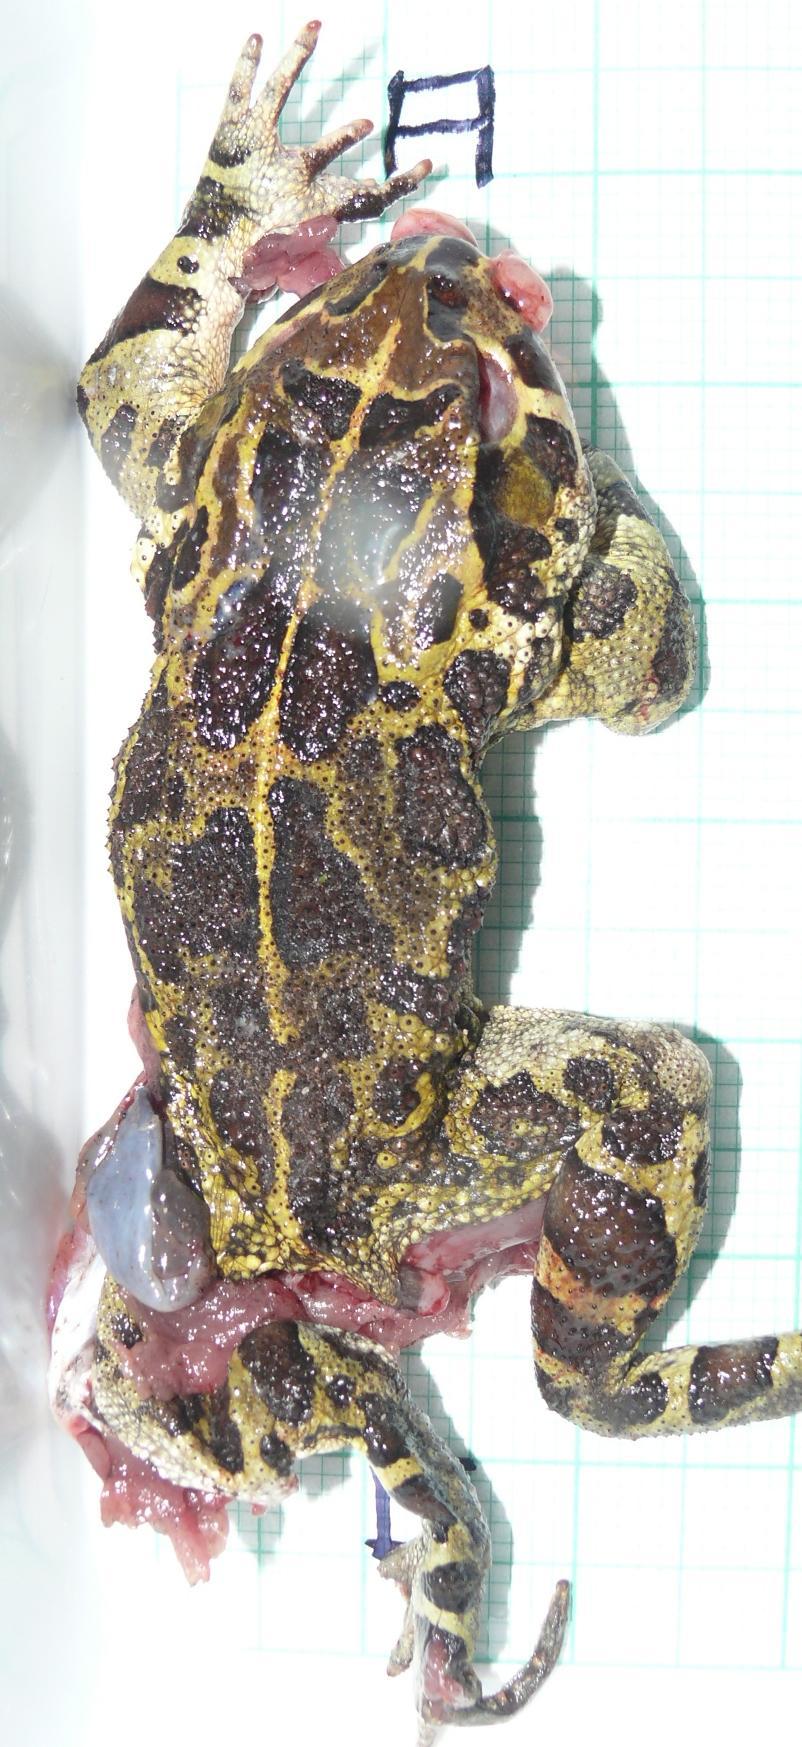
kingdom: Animalia
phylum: Chordata
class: Amphibia
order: Anura
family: Bufonidae
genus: Sclerophrys
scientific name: Sclerophrys pantherina
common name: Panther toad
